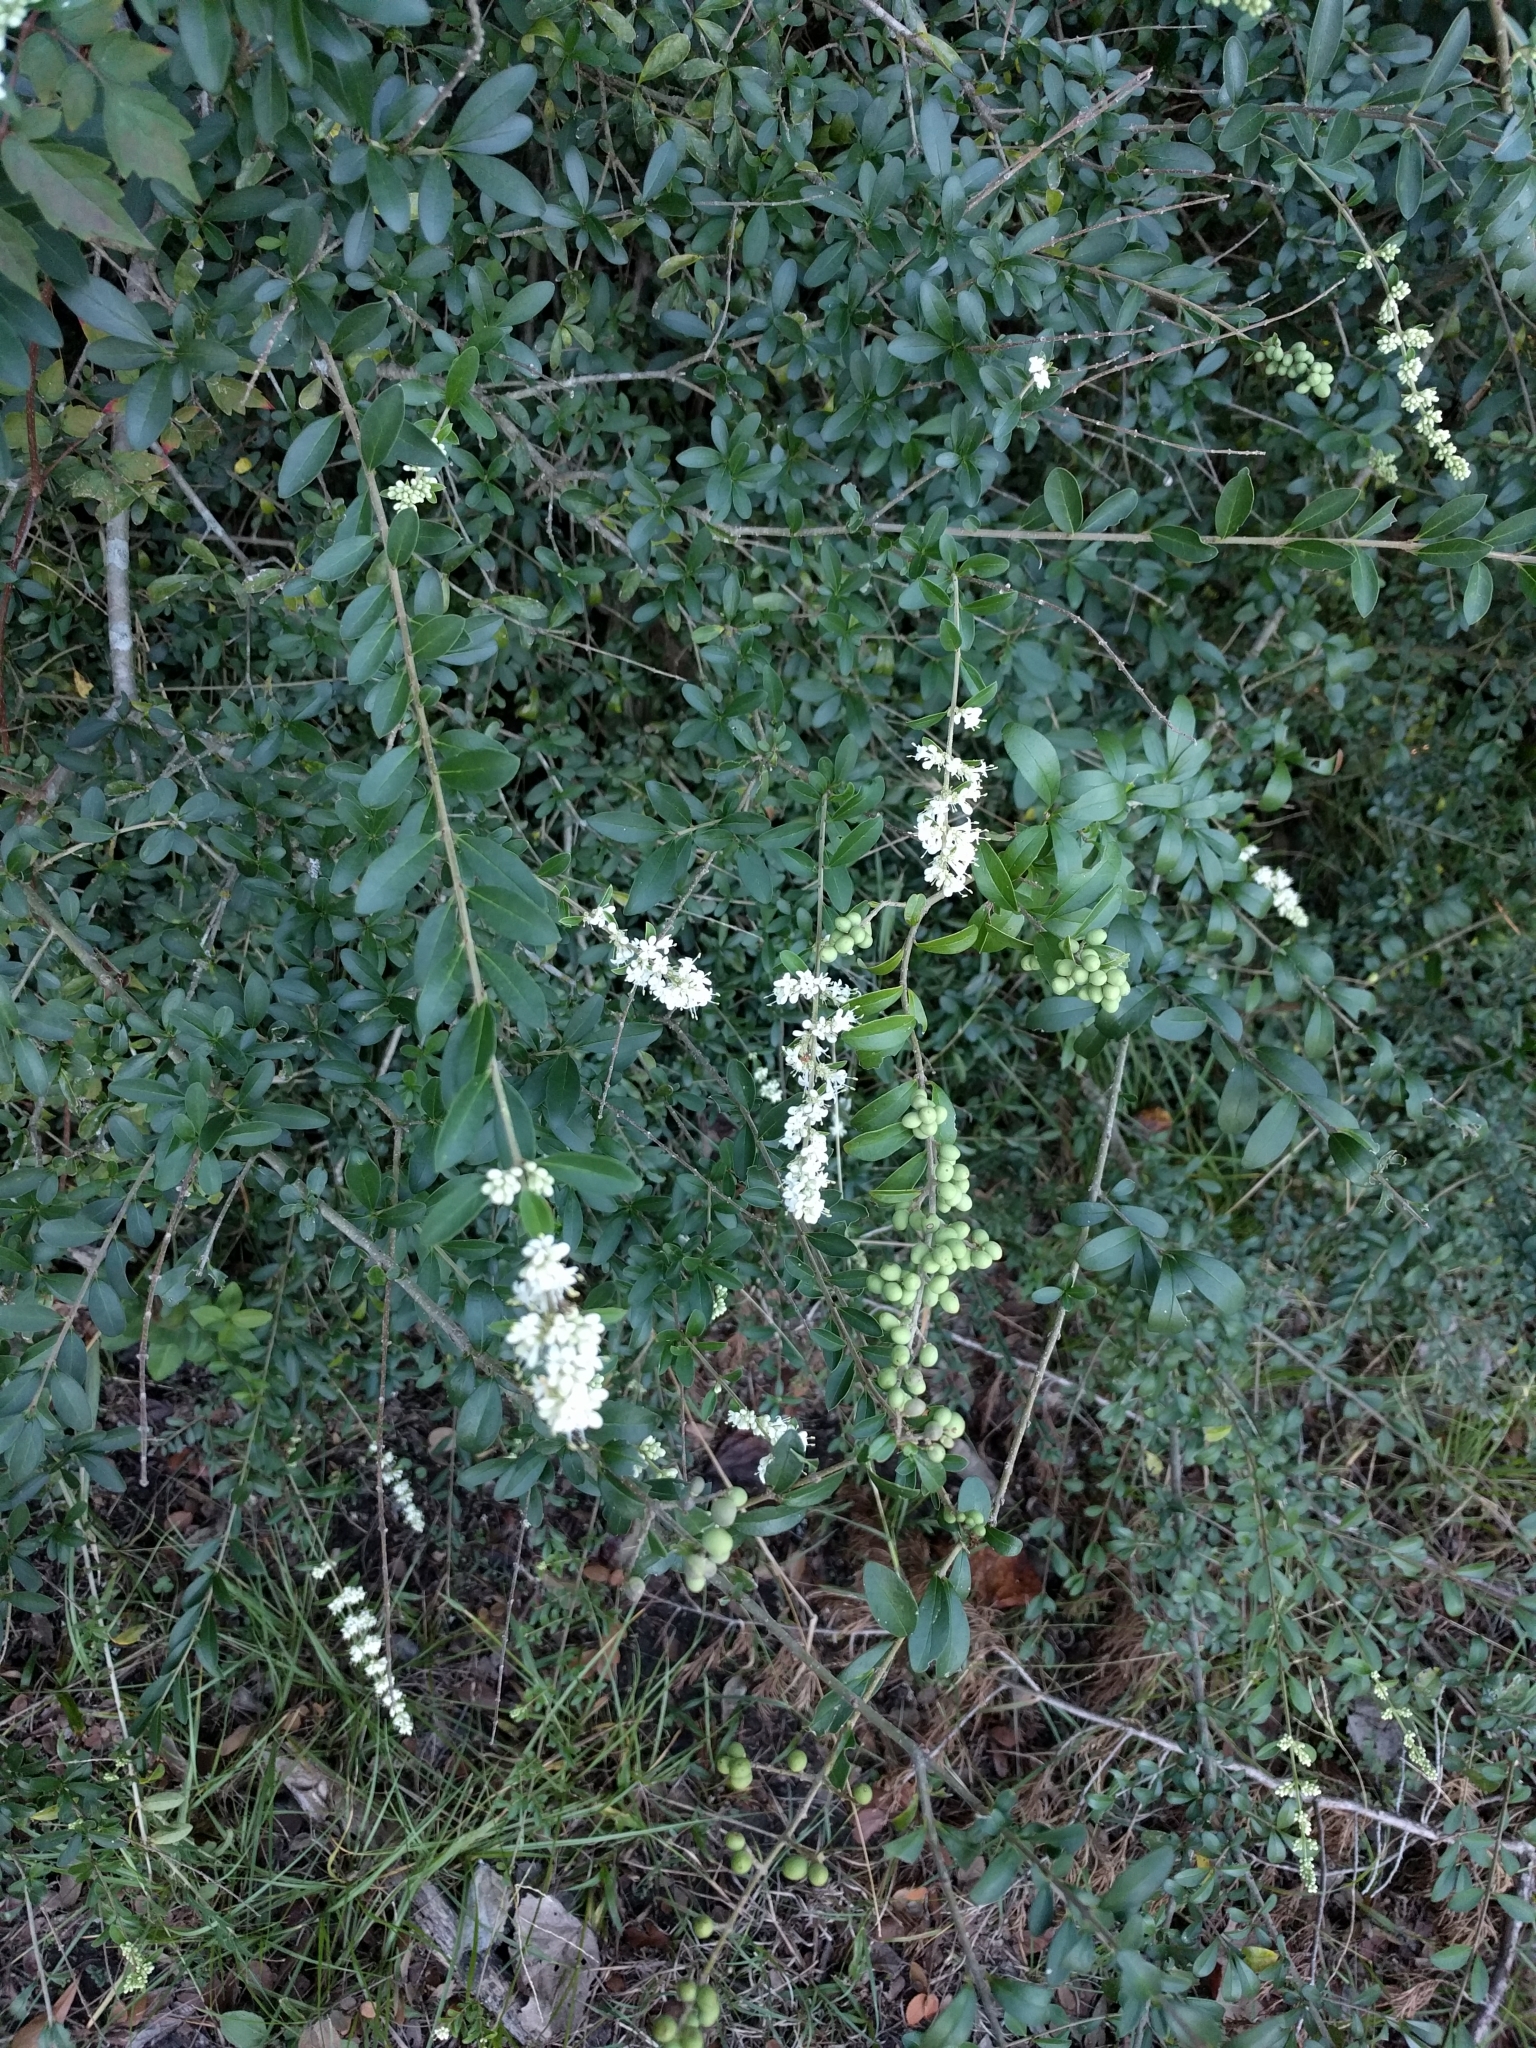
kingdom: Plantae
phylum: Tracheophyta
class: Magnoliopsida
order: Lamiales
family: Oleaceae
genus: Ligustrum
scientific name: Ligustrum quihoui
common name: Waxyleaf privet
